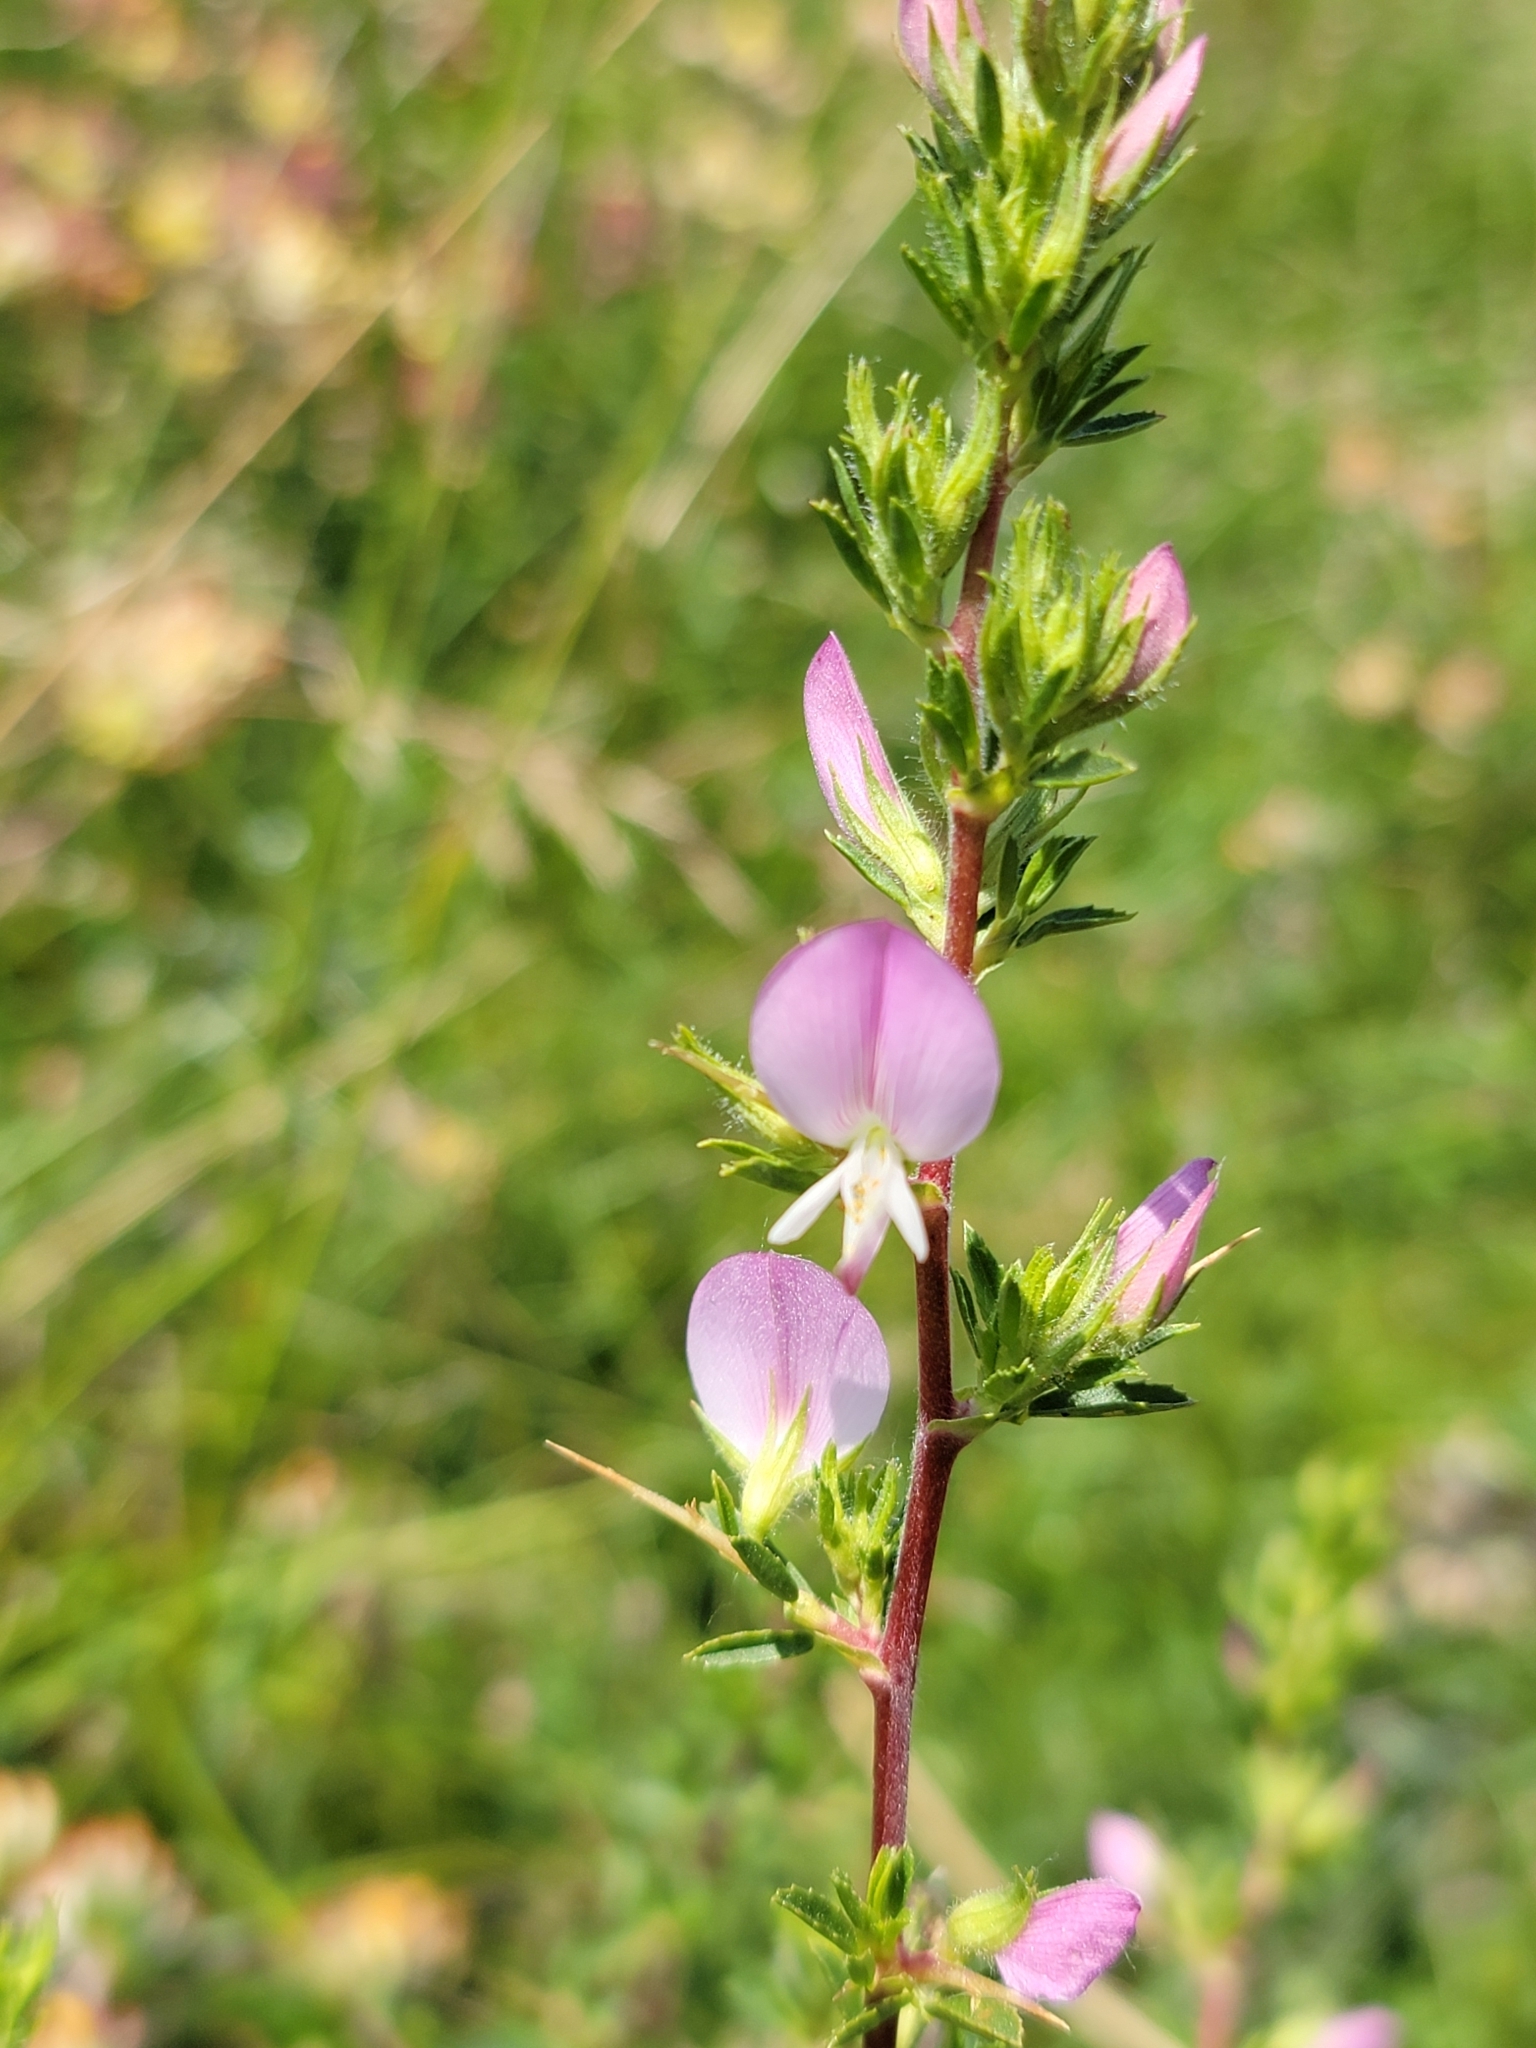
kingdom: Plantae
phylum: Tracheophyta
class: Magnoliopsida
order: Fabales
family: Fabaceae
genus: Ononis
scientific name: Ononis spinosa
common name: Spiny restharrow
